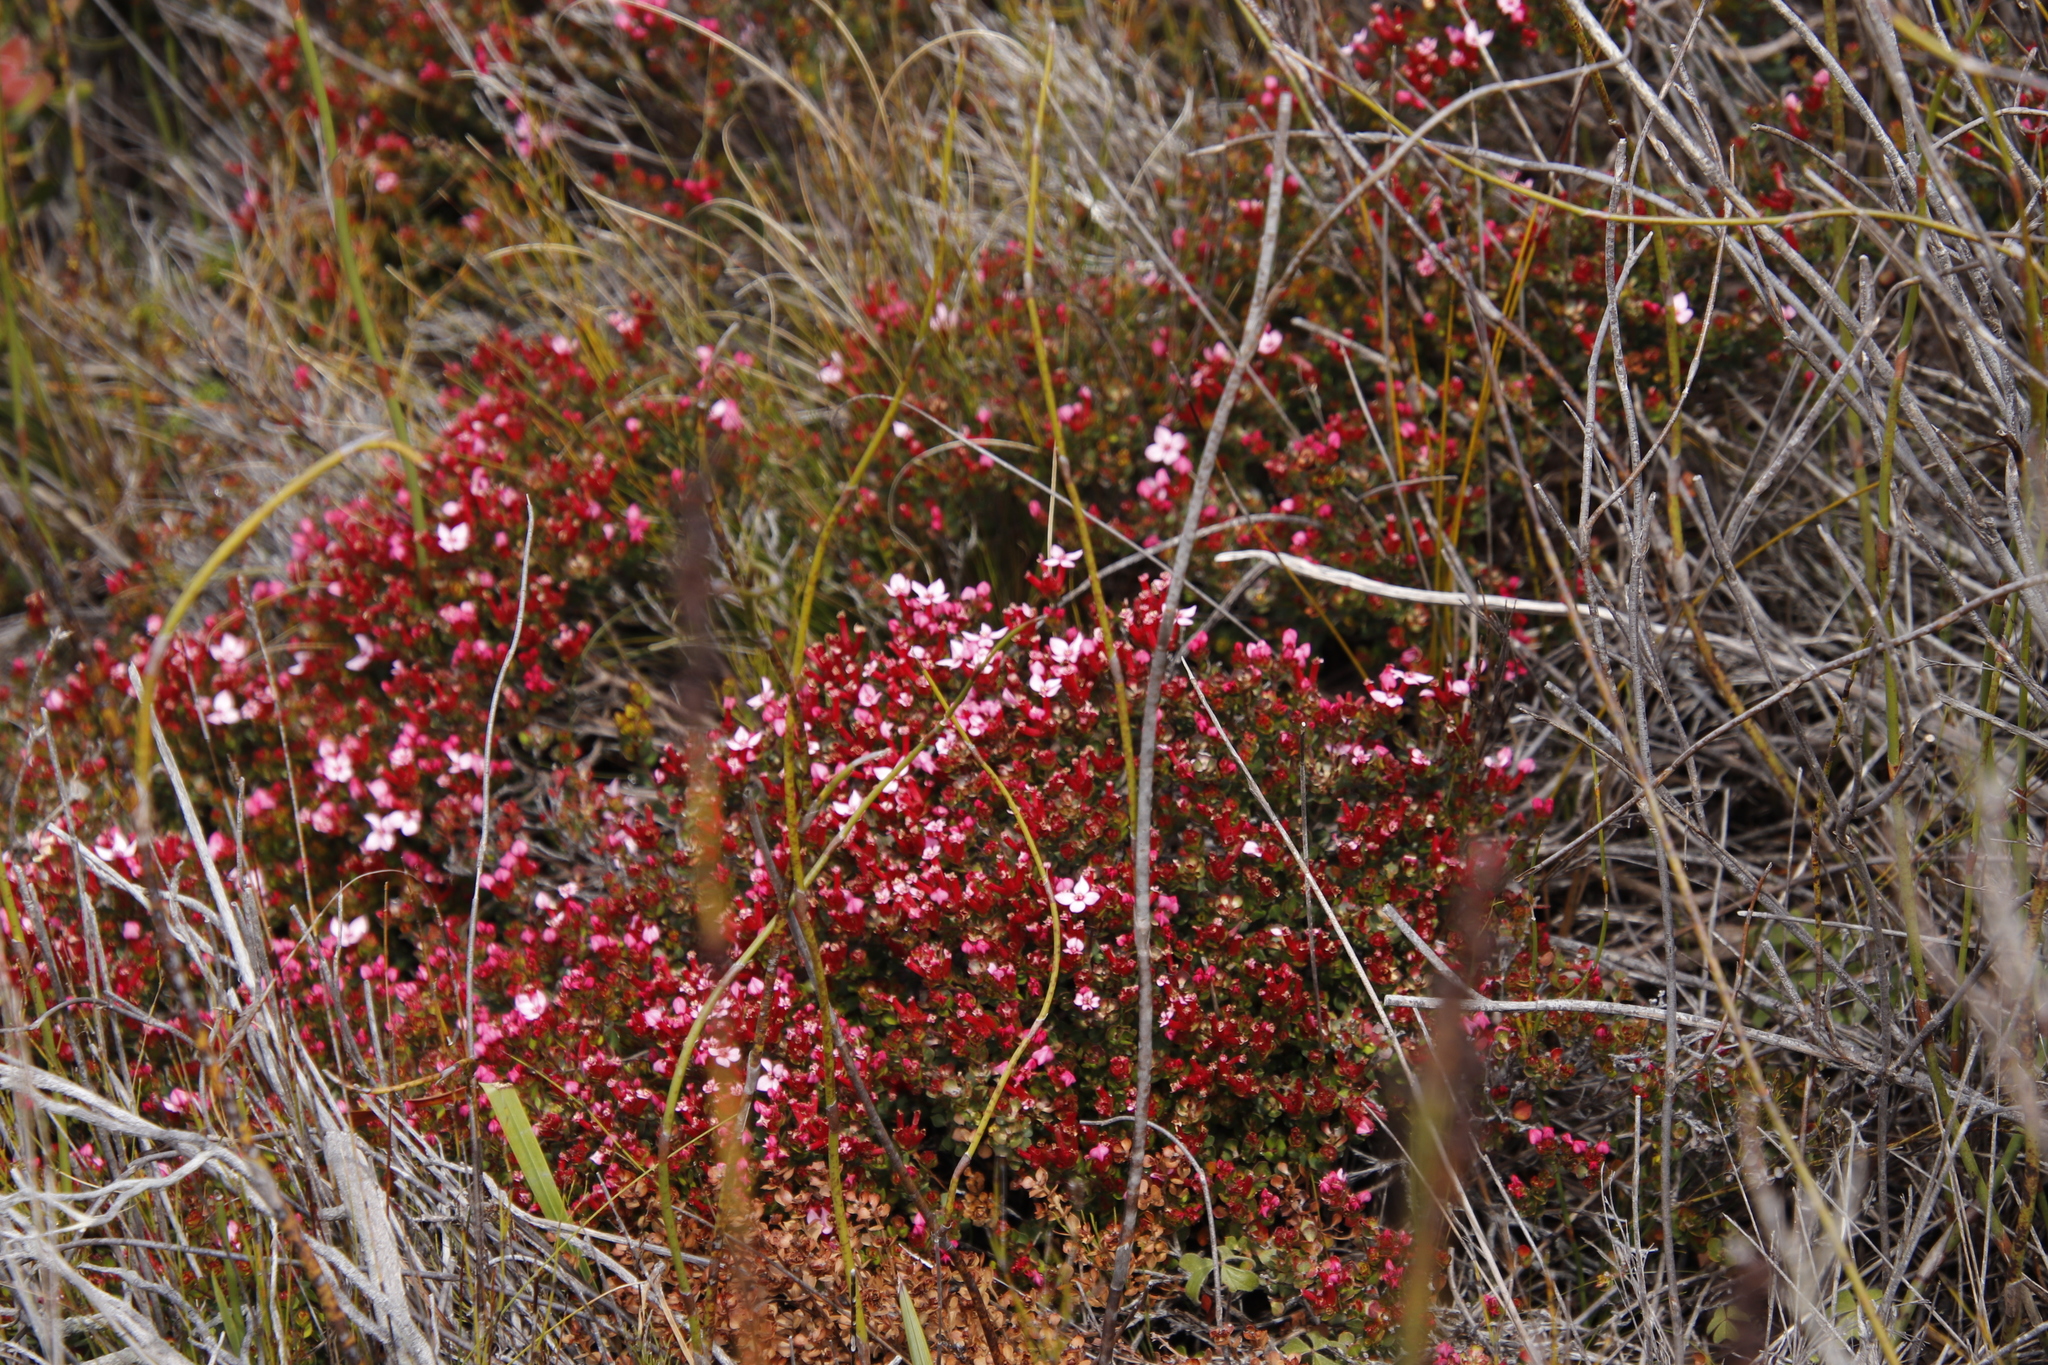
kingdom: Plantae
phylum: Tracheophyta
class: Magnoliopsida
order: Myrtales
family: Penaeaceae
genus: Brachysiphon
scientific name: Brachysiphon acutus
